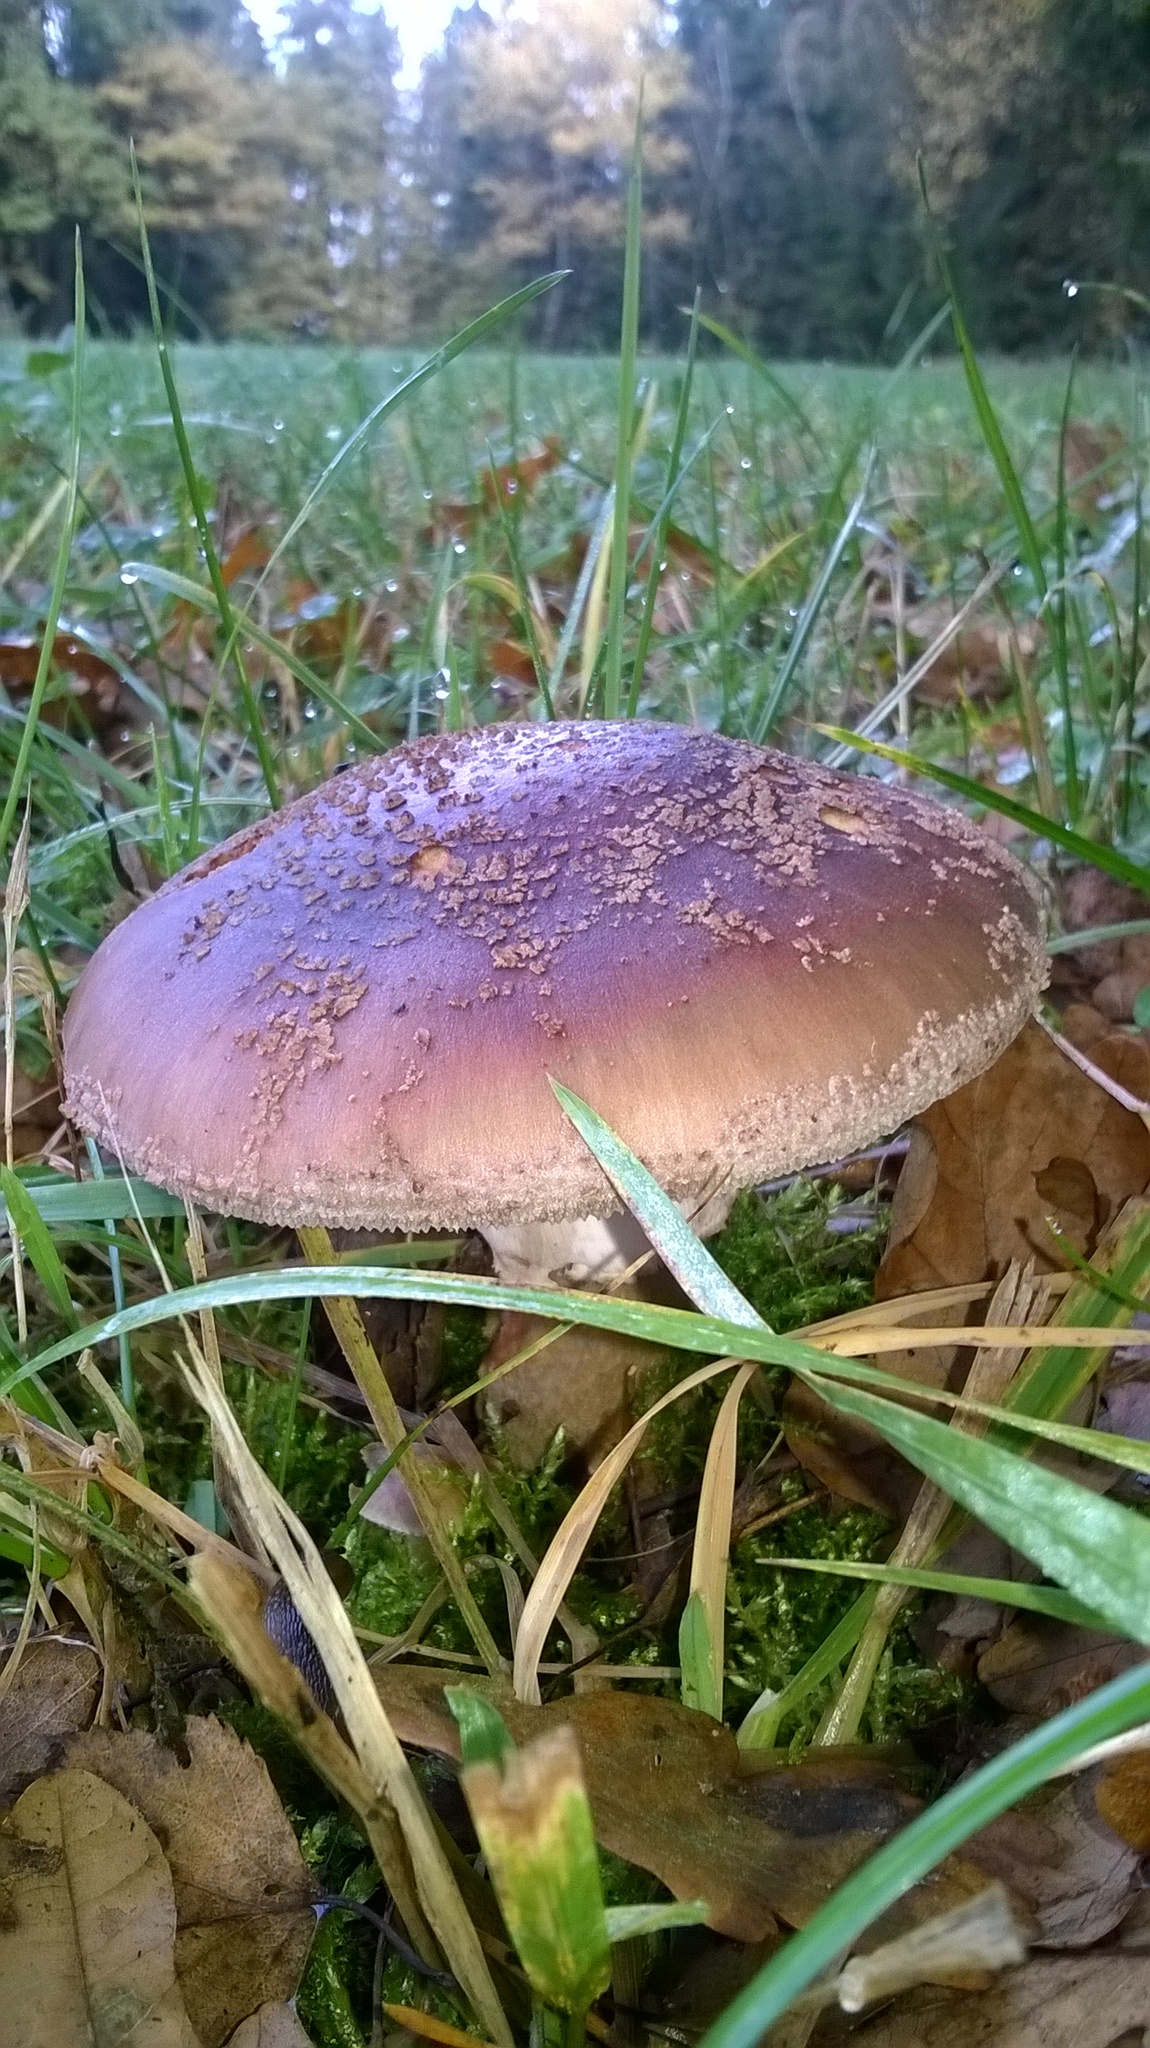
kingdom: Fungi
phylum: Basidiomycota
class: Agaricomycetes
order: Agaricales
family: Amanitaceae
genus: Amanita
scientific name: Amanita rubescens
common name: Blusher
